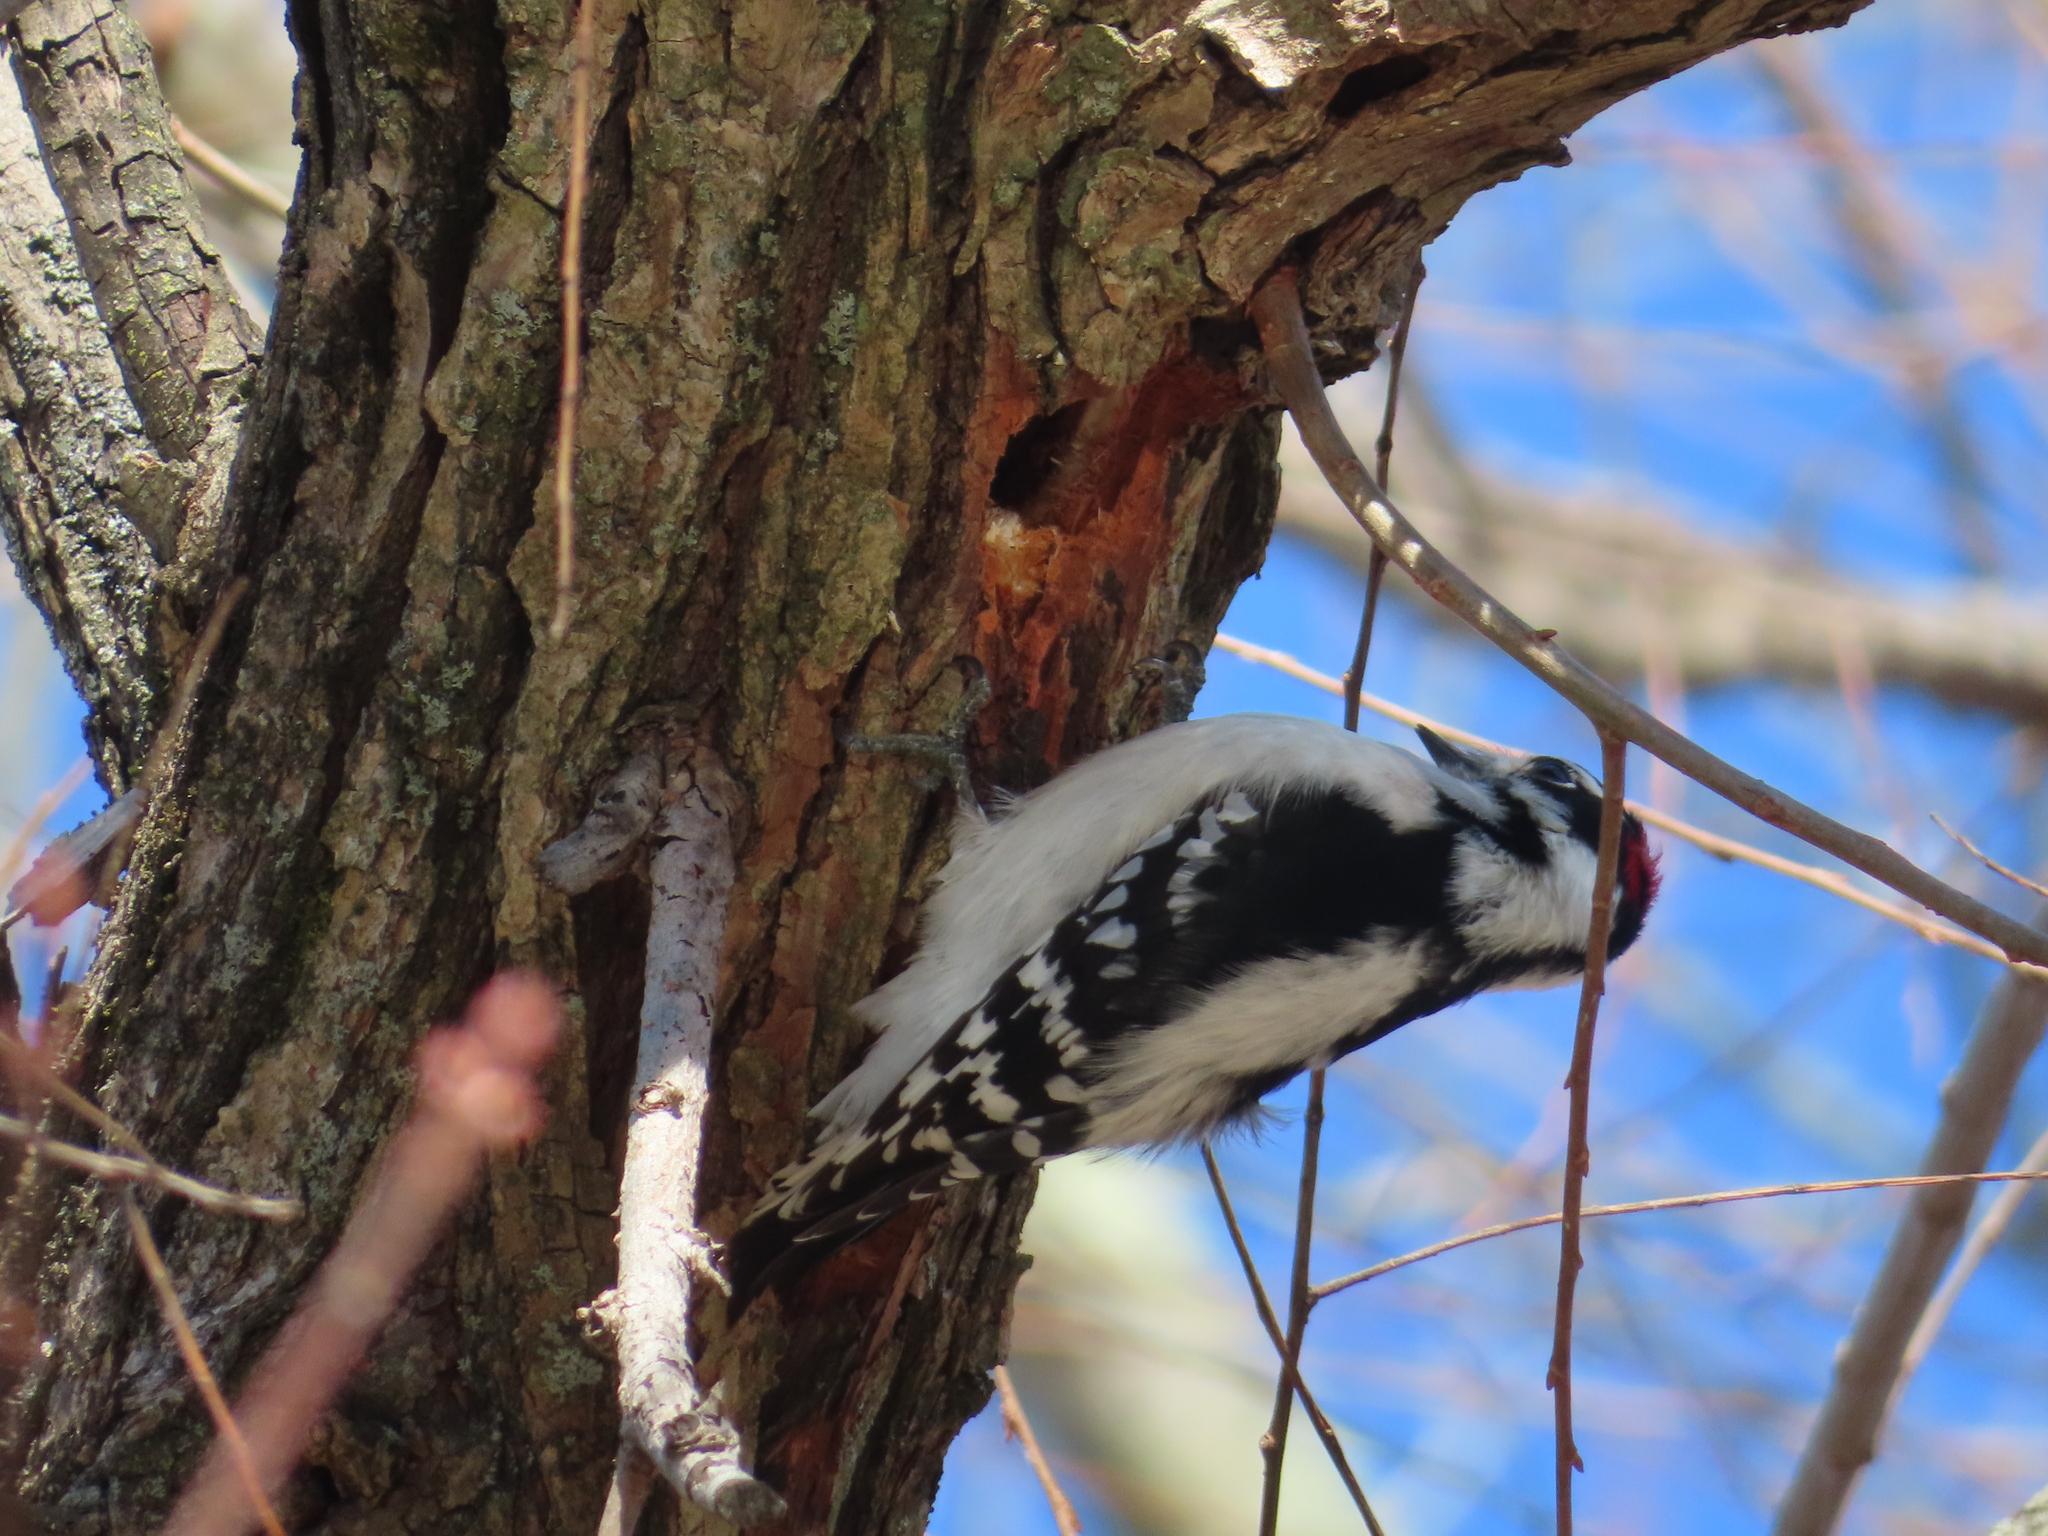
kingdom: Animalia
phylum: Chordata
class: Aves
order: Piciformes
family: Picidae
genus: Dryobates
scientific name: Dryobates pubescens
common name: Downy woodpecker
